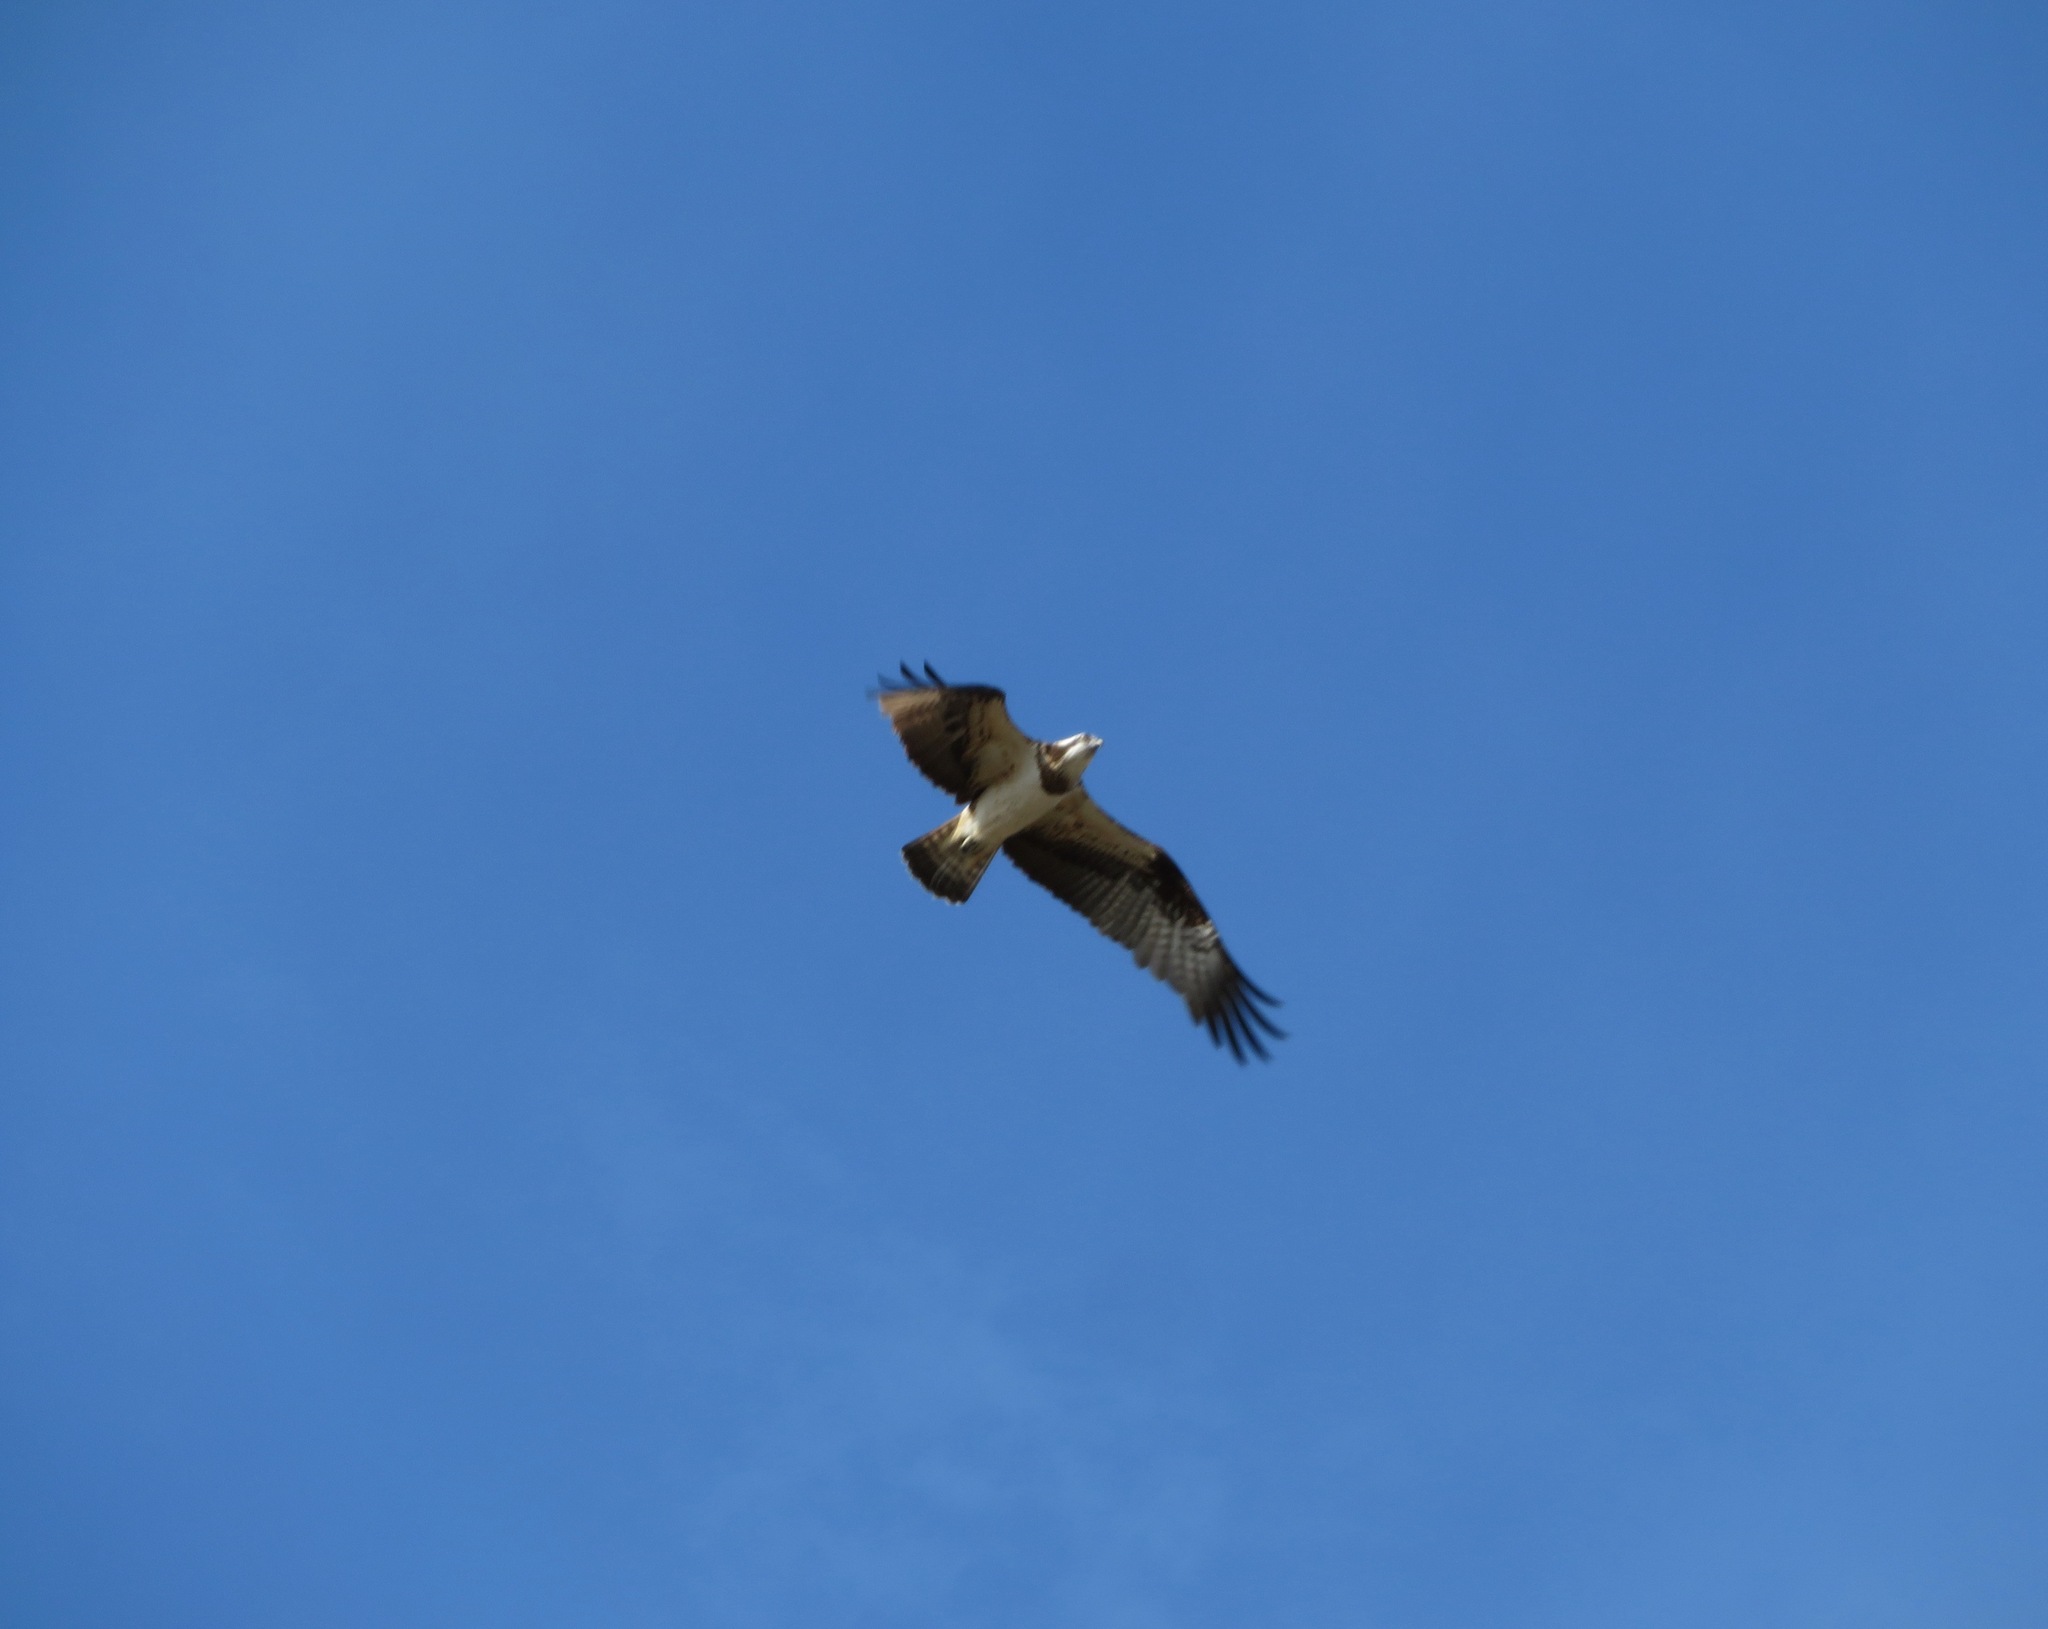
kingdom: Animalia
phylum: Chordata
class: Aves
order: Accipitriformes
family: Pandionidae
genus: Pandion
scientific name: Pandion haliaetus
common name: Osprey
